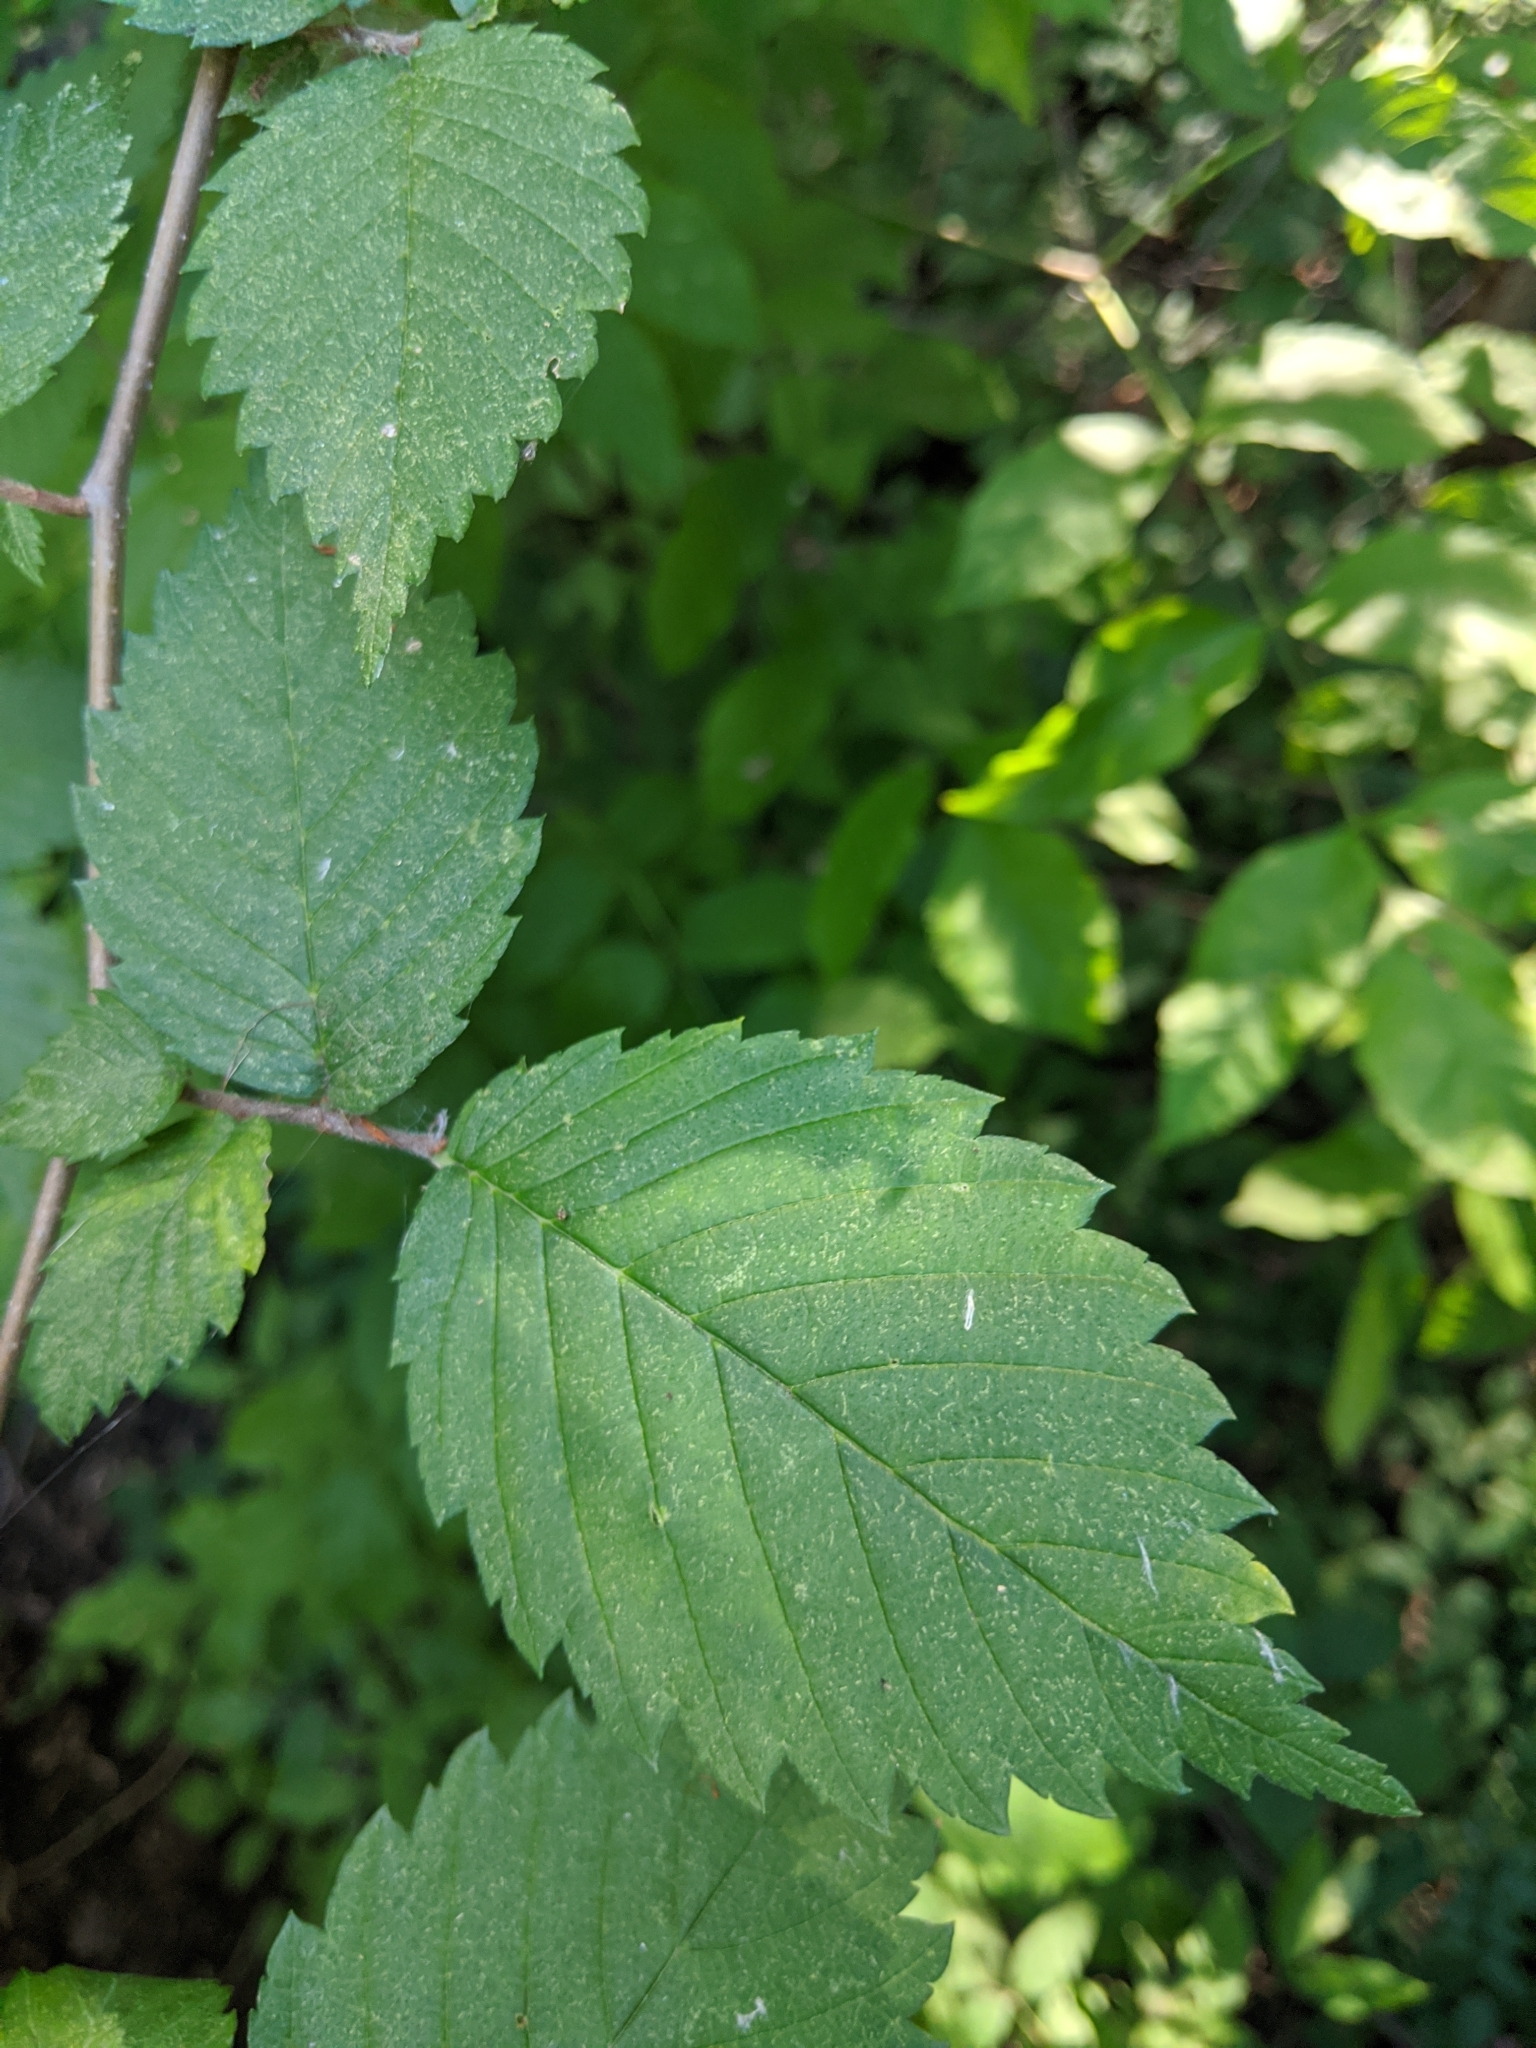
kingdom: Plantae
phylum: Tracheophyta
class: Magnoliopsida
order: Rosales
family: Ulmaceae
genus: Ulmus
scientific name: Ulmus americana
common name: American elm
